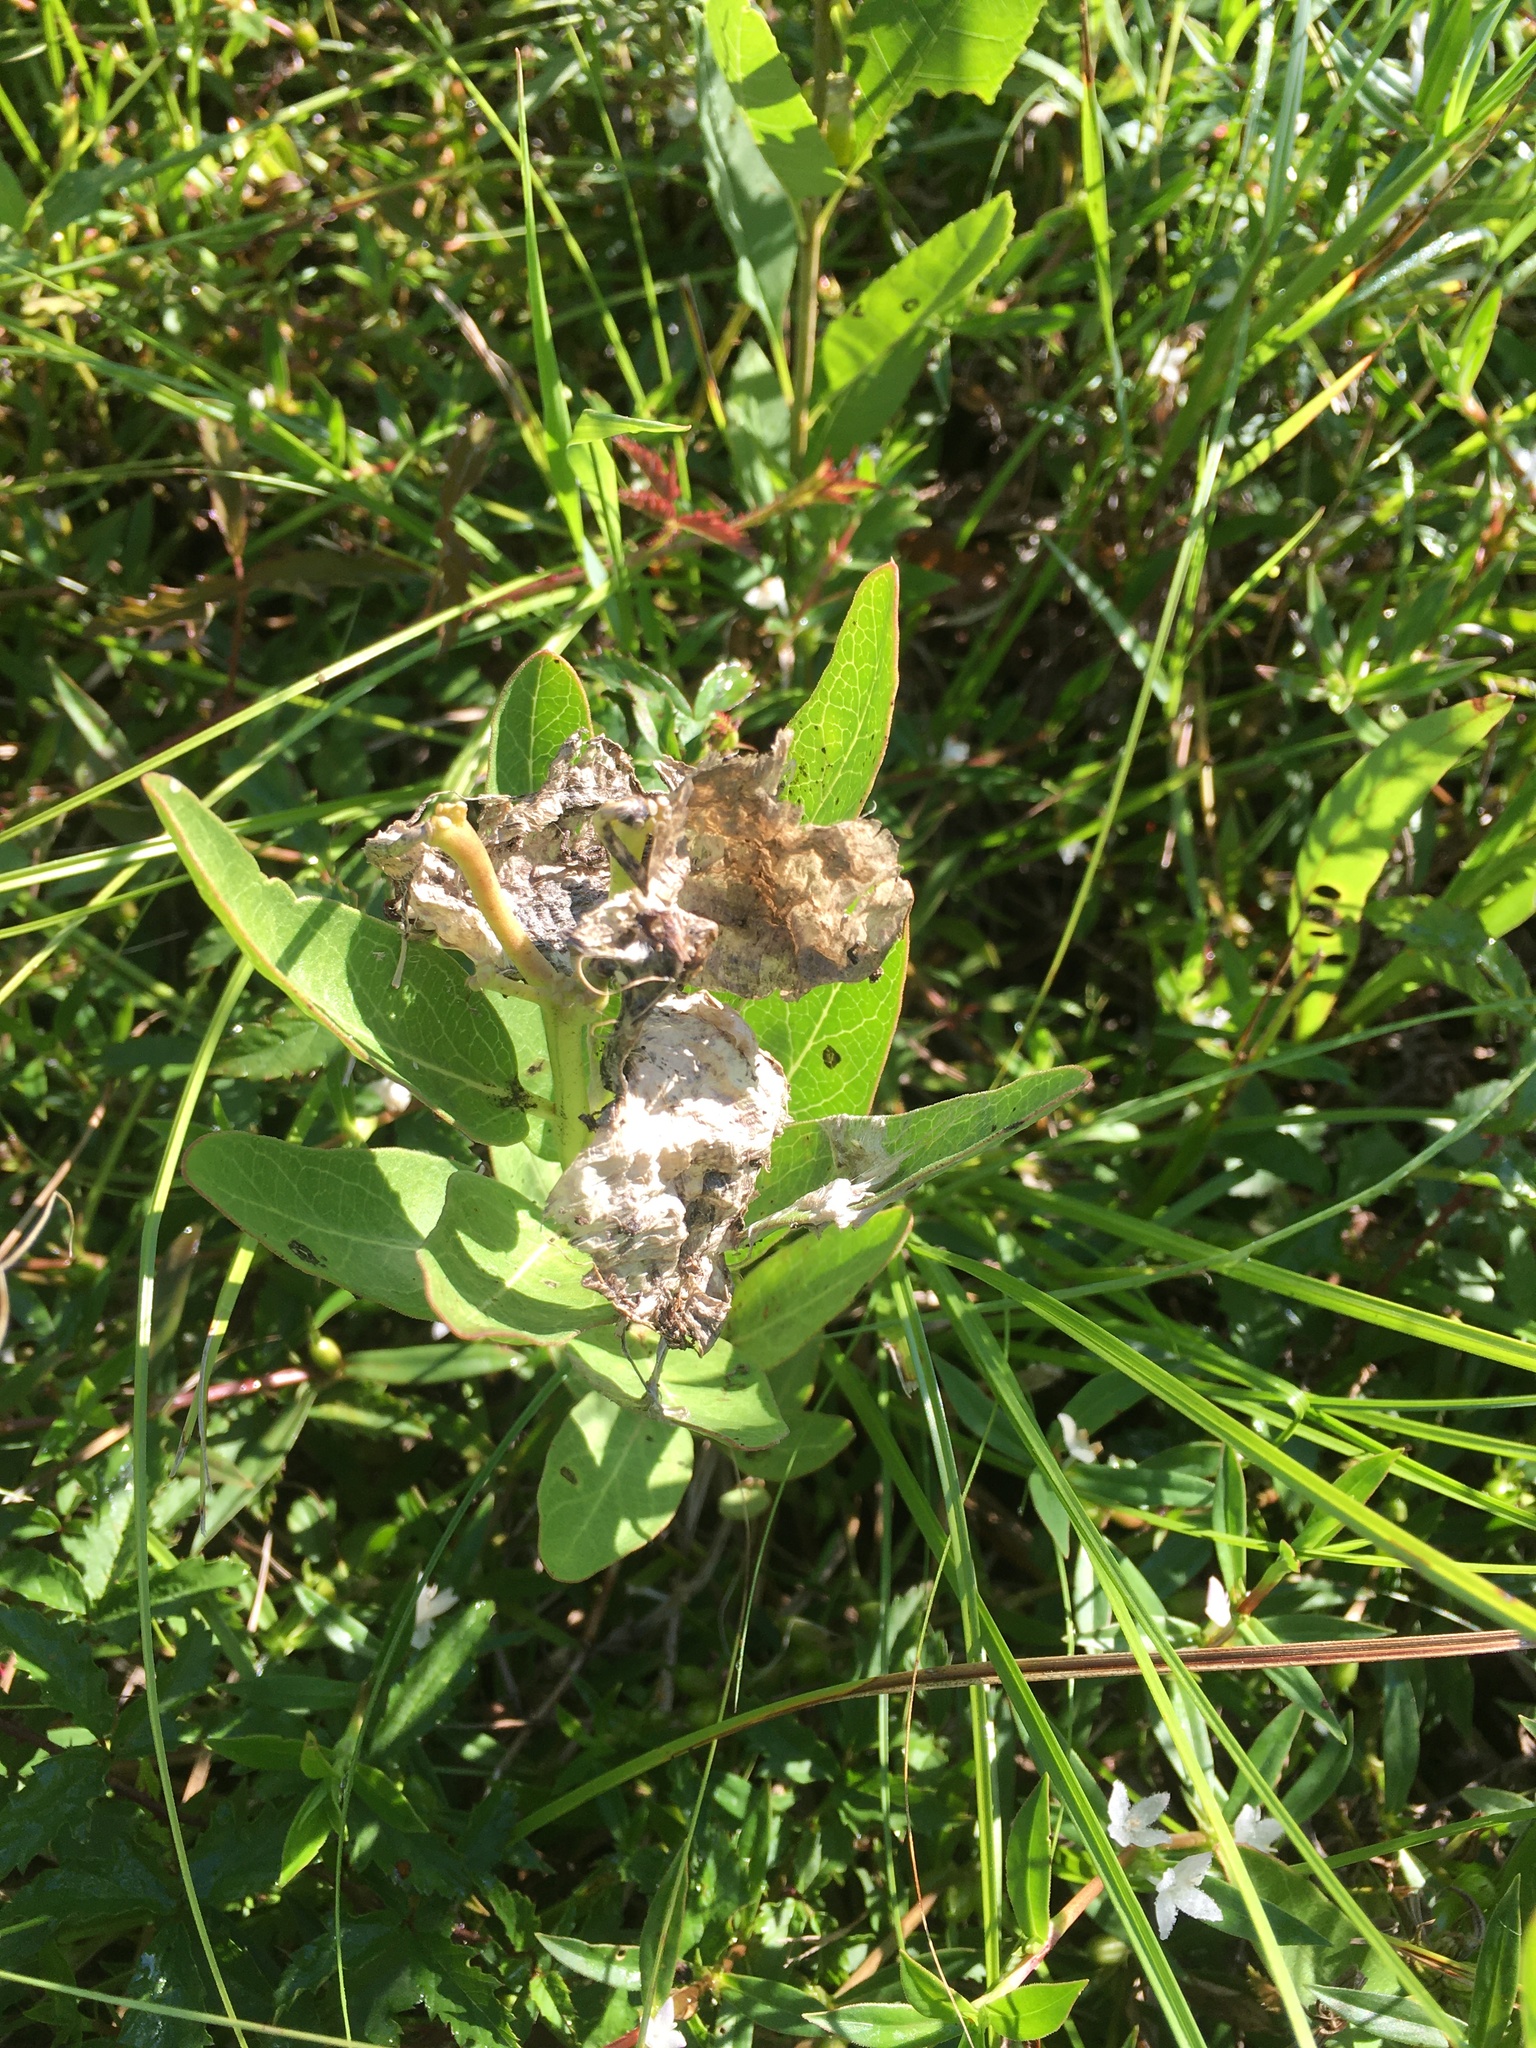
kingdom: Plantae
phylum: Tracheophyta
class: Magnoliopsida
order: Gentianales
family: Apocynaceae
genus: Asclepias
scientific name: Asclepias viridis
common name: Antelope-horns
